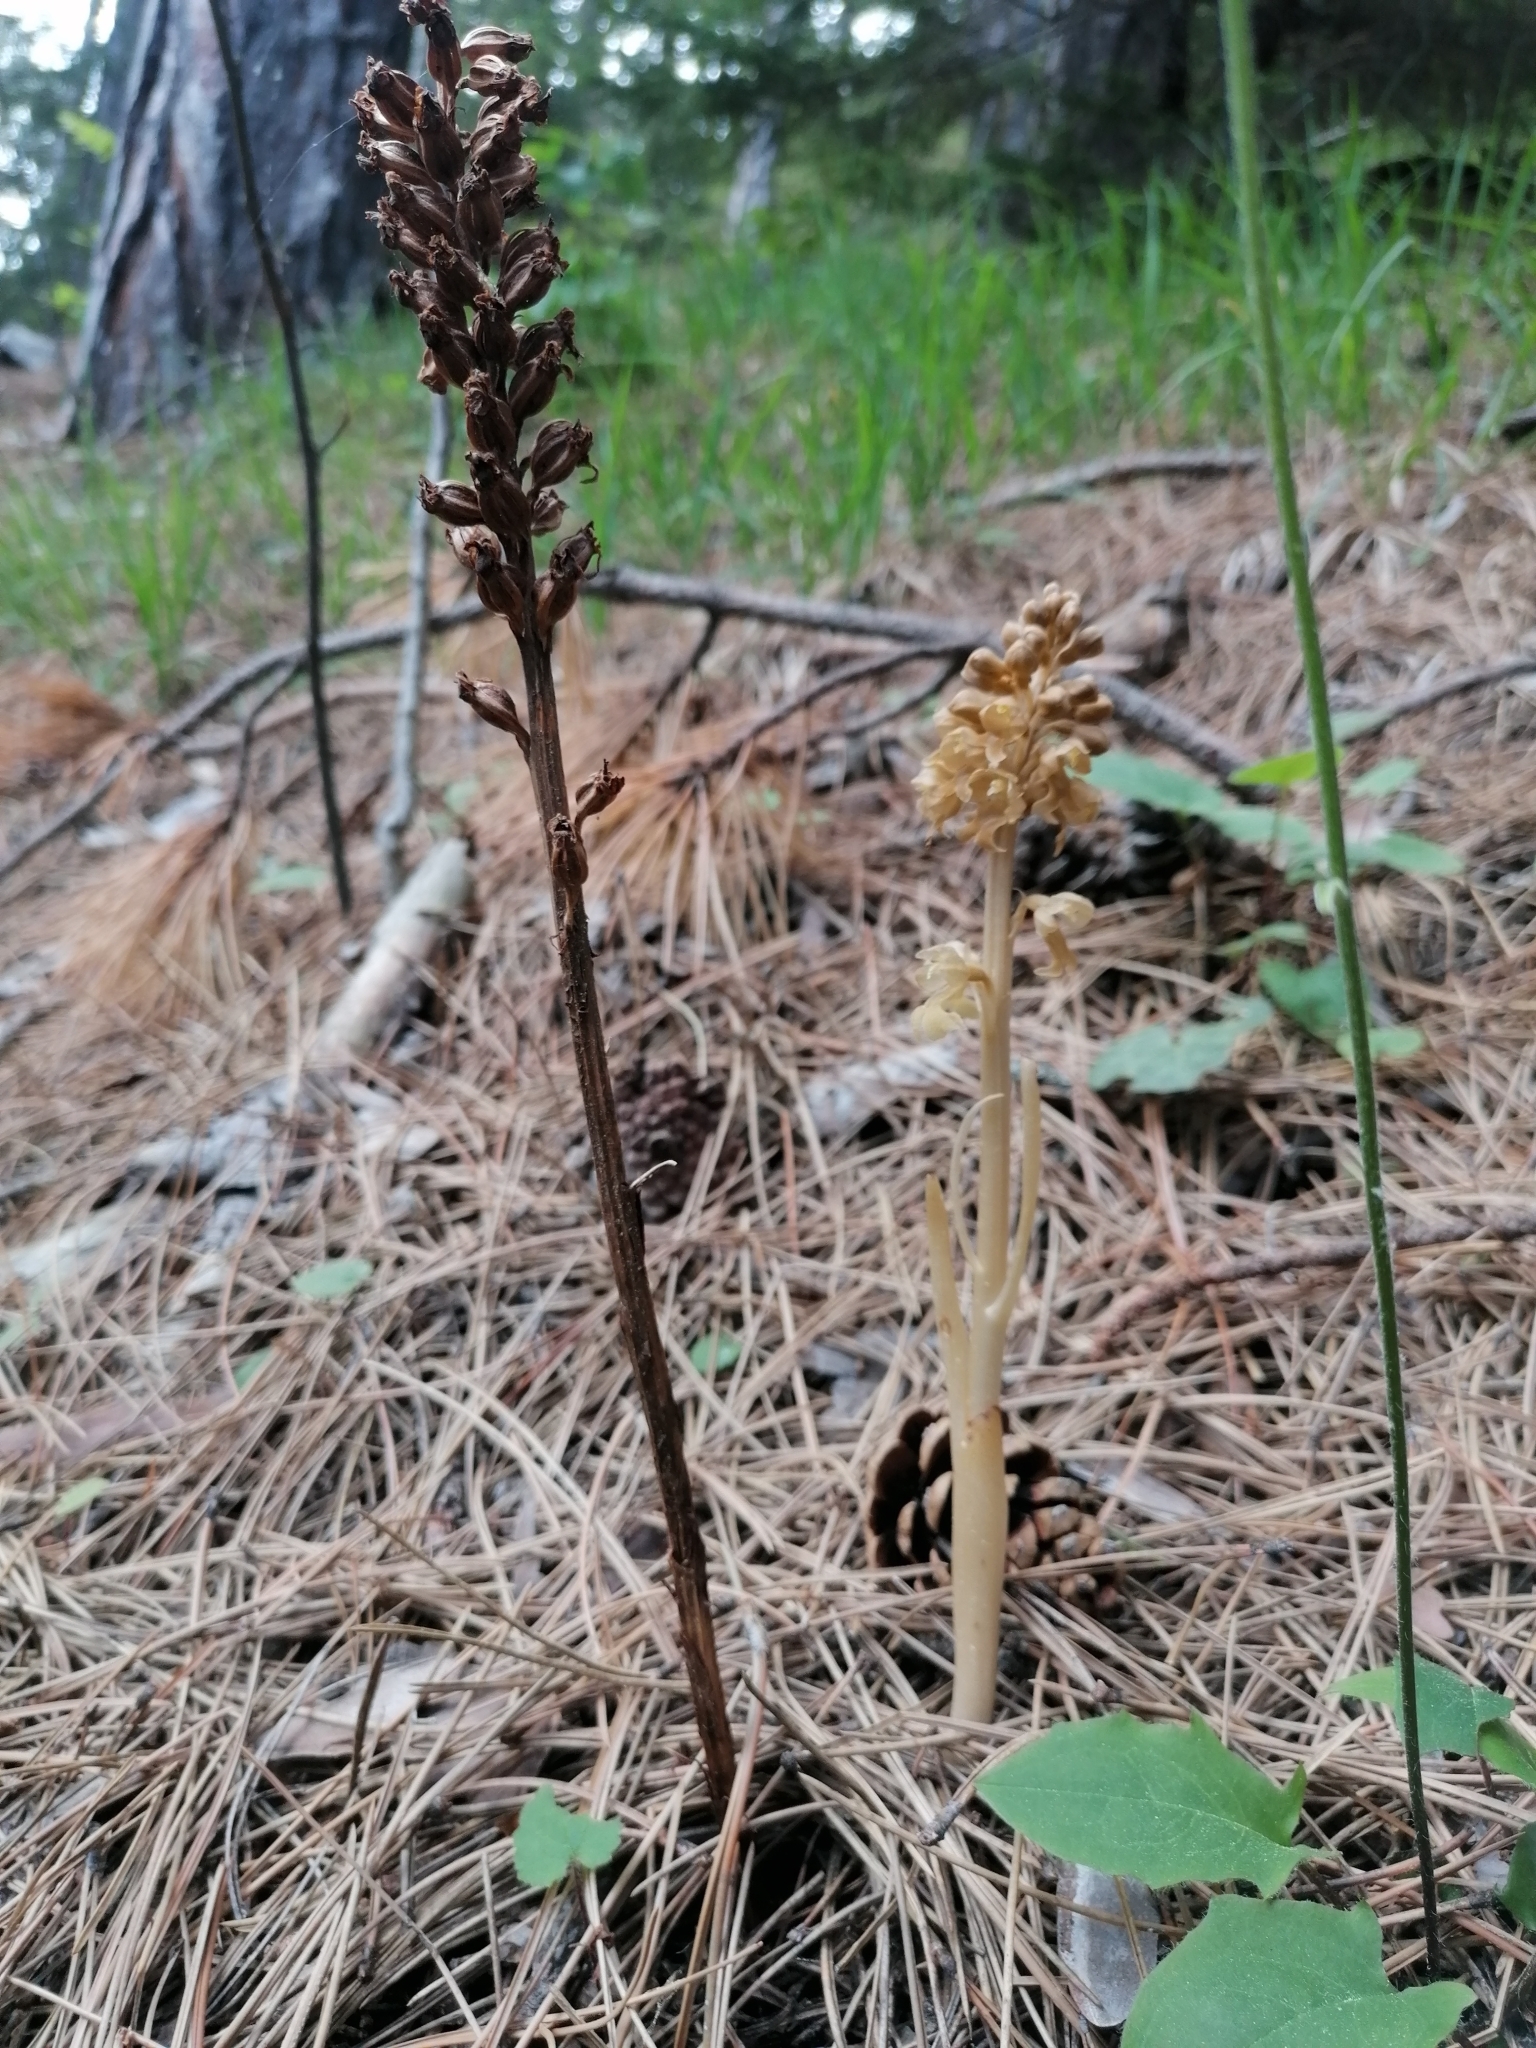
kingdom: Plantae
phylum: Tracheophyta
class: Liliopsida
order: Asparagales
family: Orchidaceae
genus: Neottia
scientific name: Neottia nidus-avis
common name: Bird's-nest orchid
